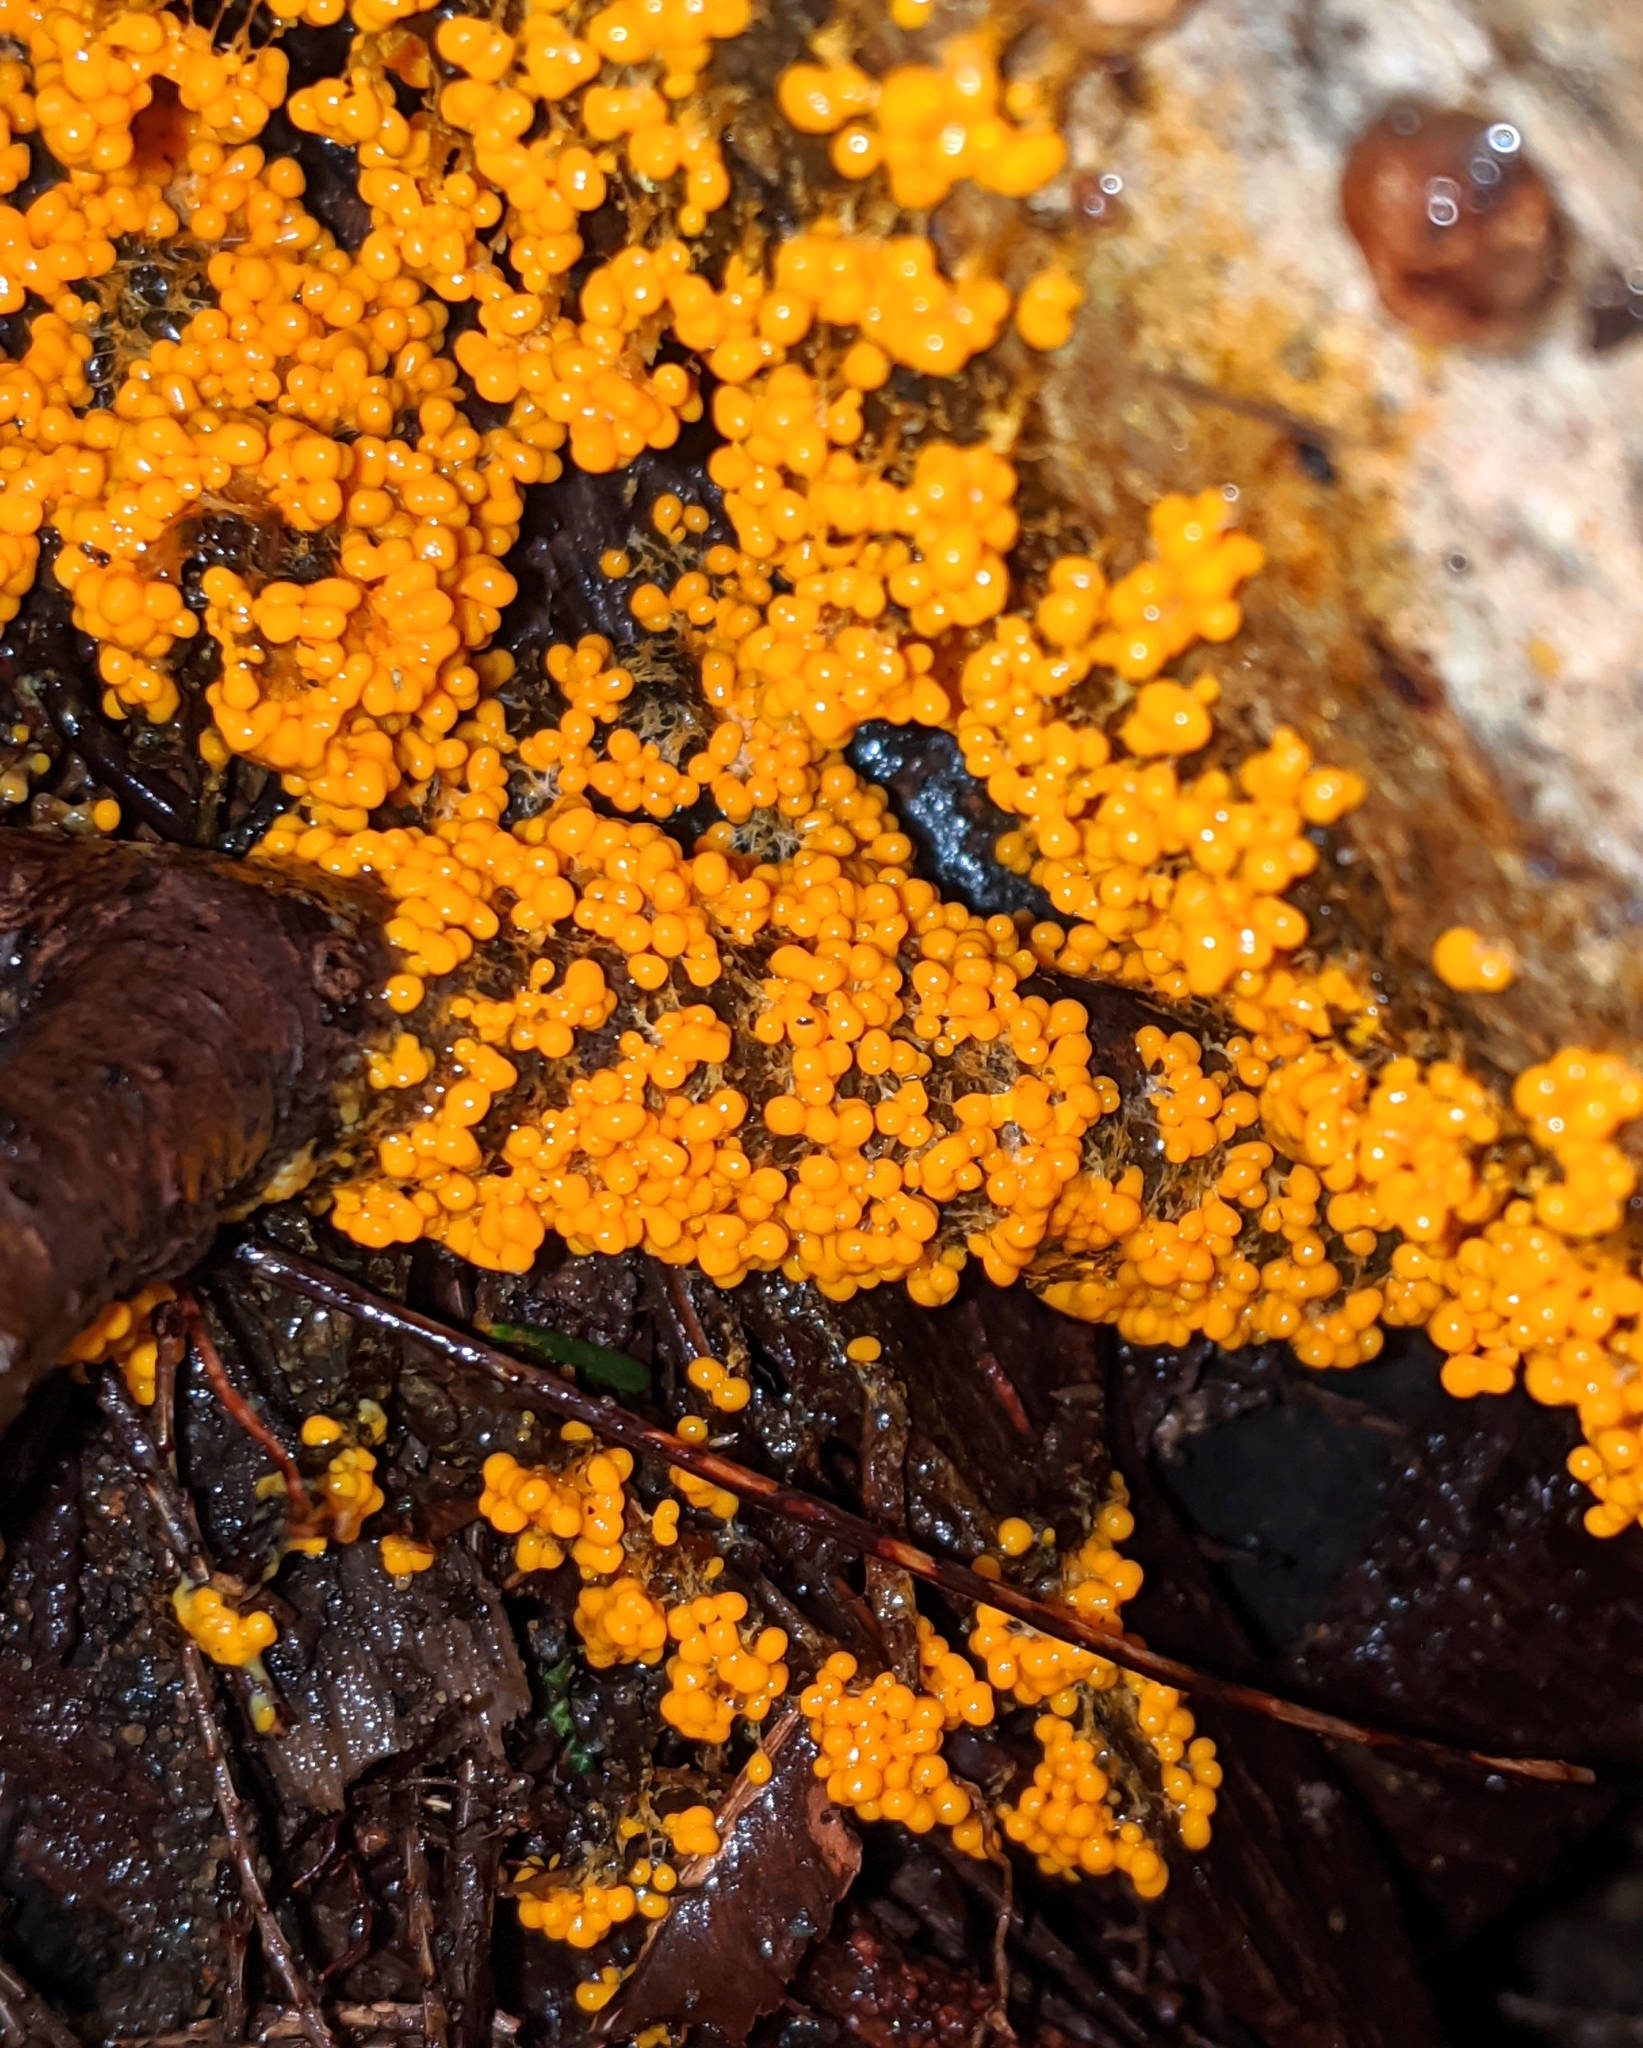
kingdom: Protozoa
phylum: Mycetozoa
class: Myxomycetes
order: Physarales
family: Physaraceae
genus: Badhamia
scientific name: Badhamia utricularis
